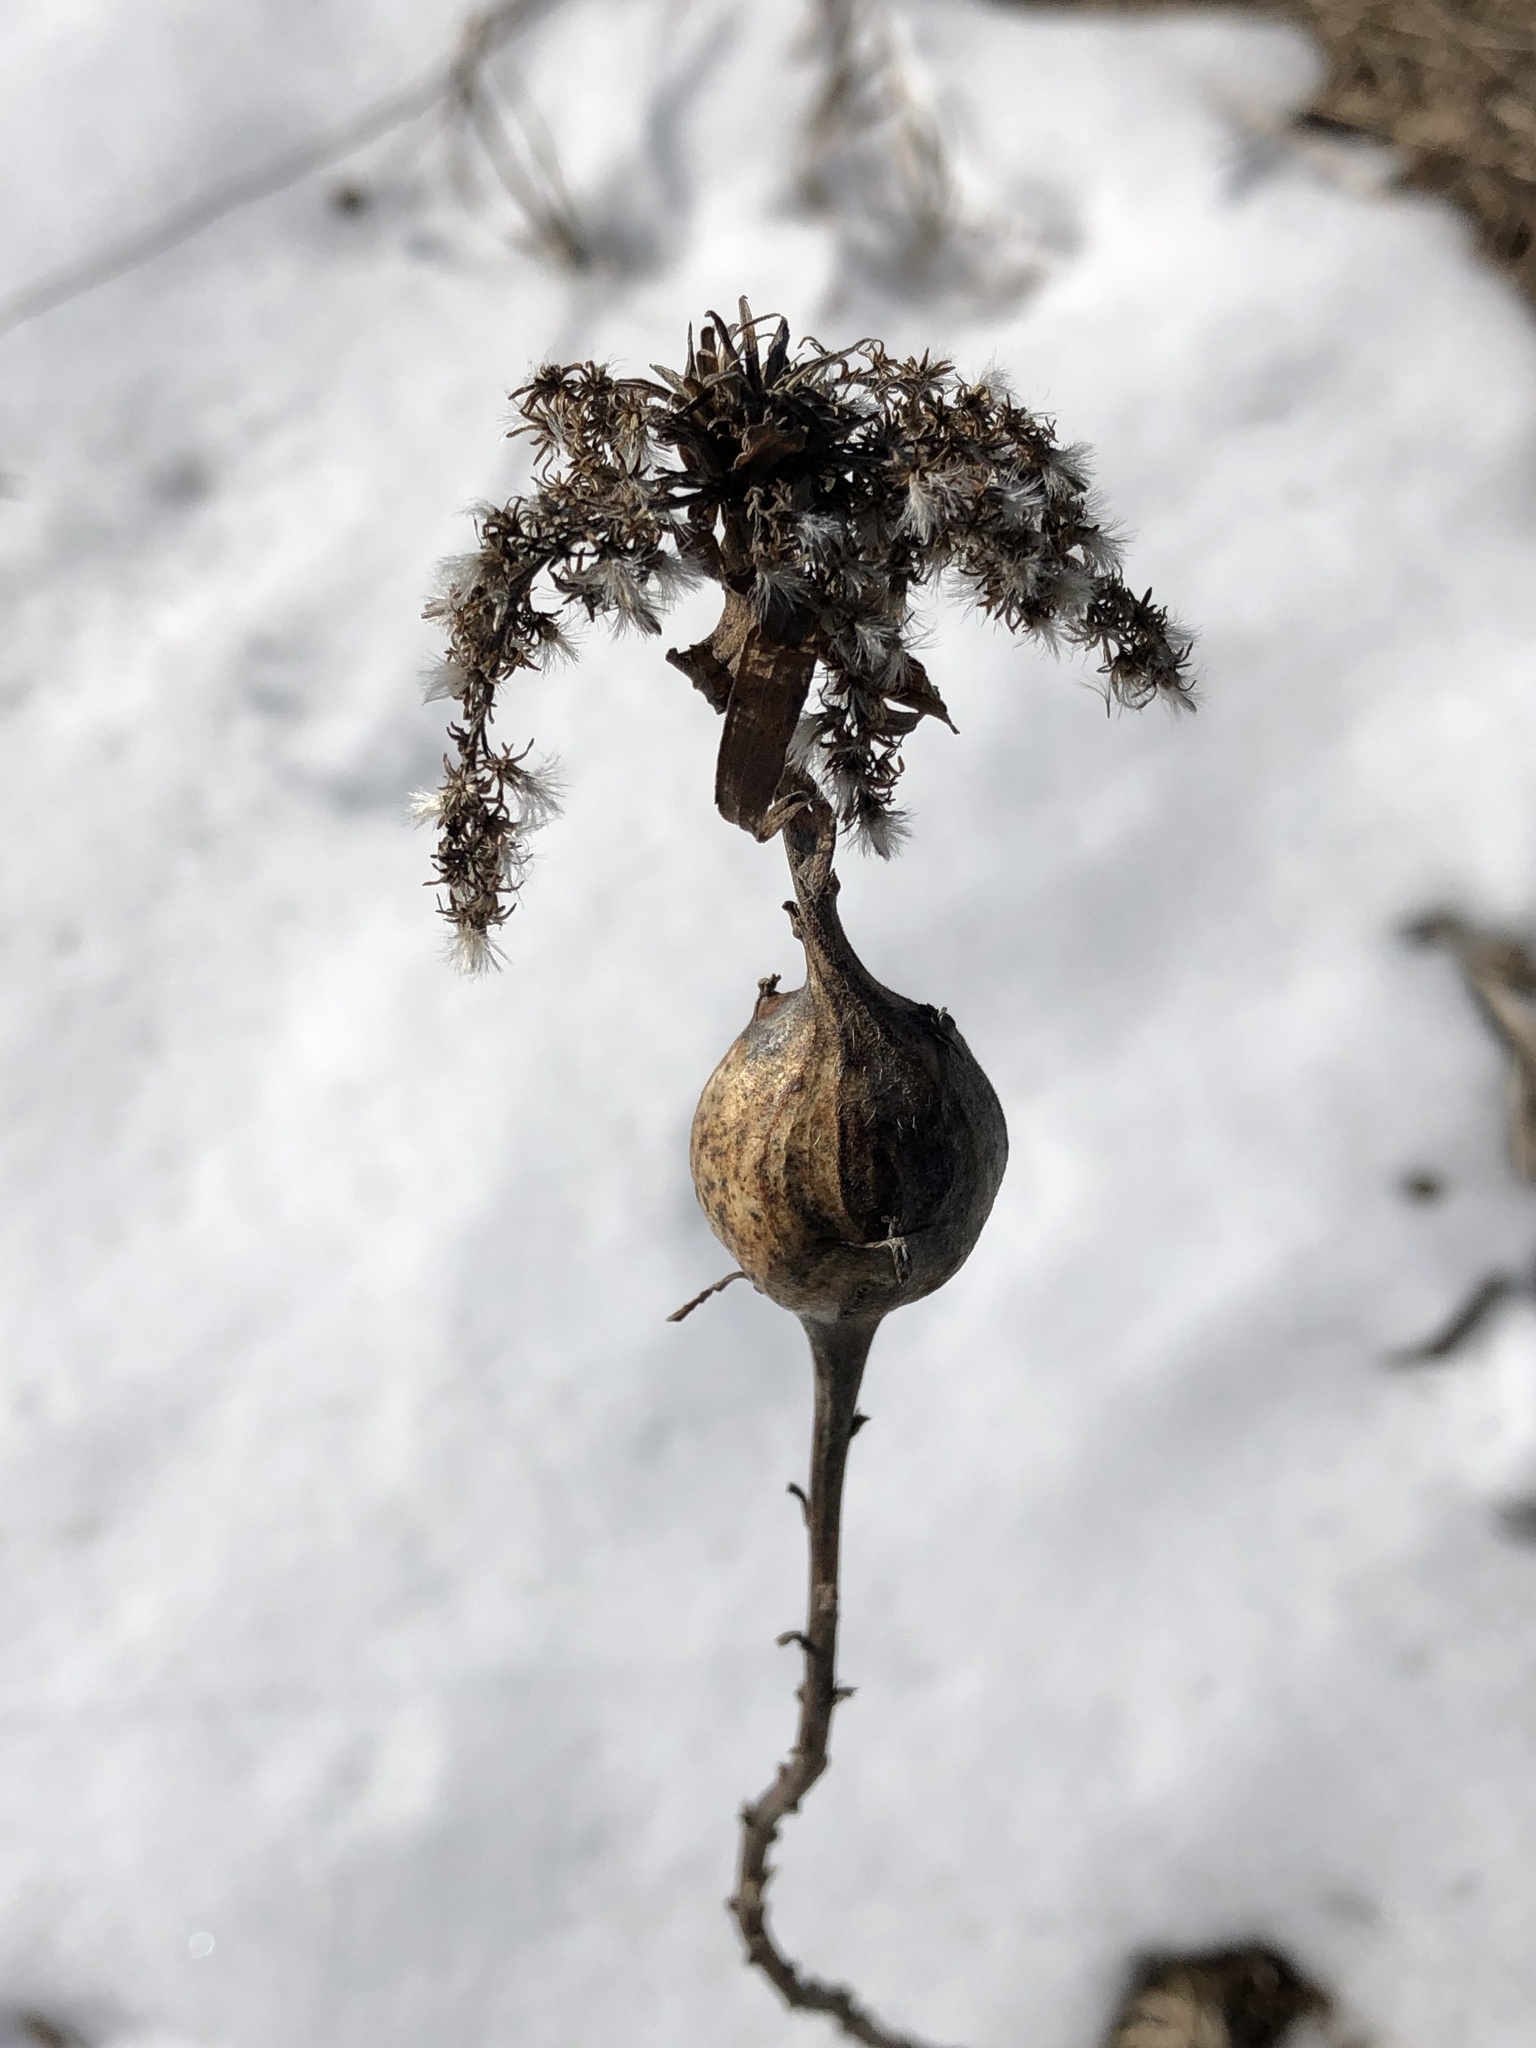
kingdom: Animalia
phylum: Arthropoda
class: Insecta
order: Diptera
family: Tephritidae
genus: Eurosta
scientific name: Eurosta solidaginis
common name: Goldenrod gall fly
